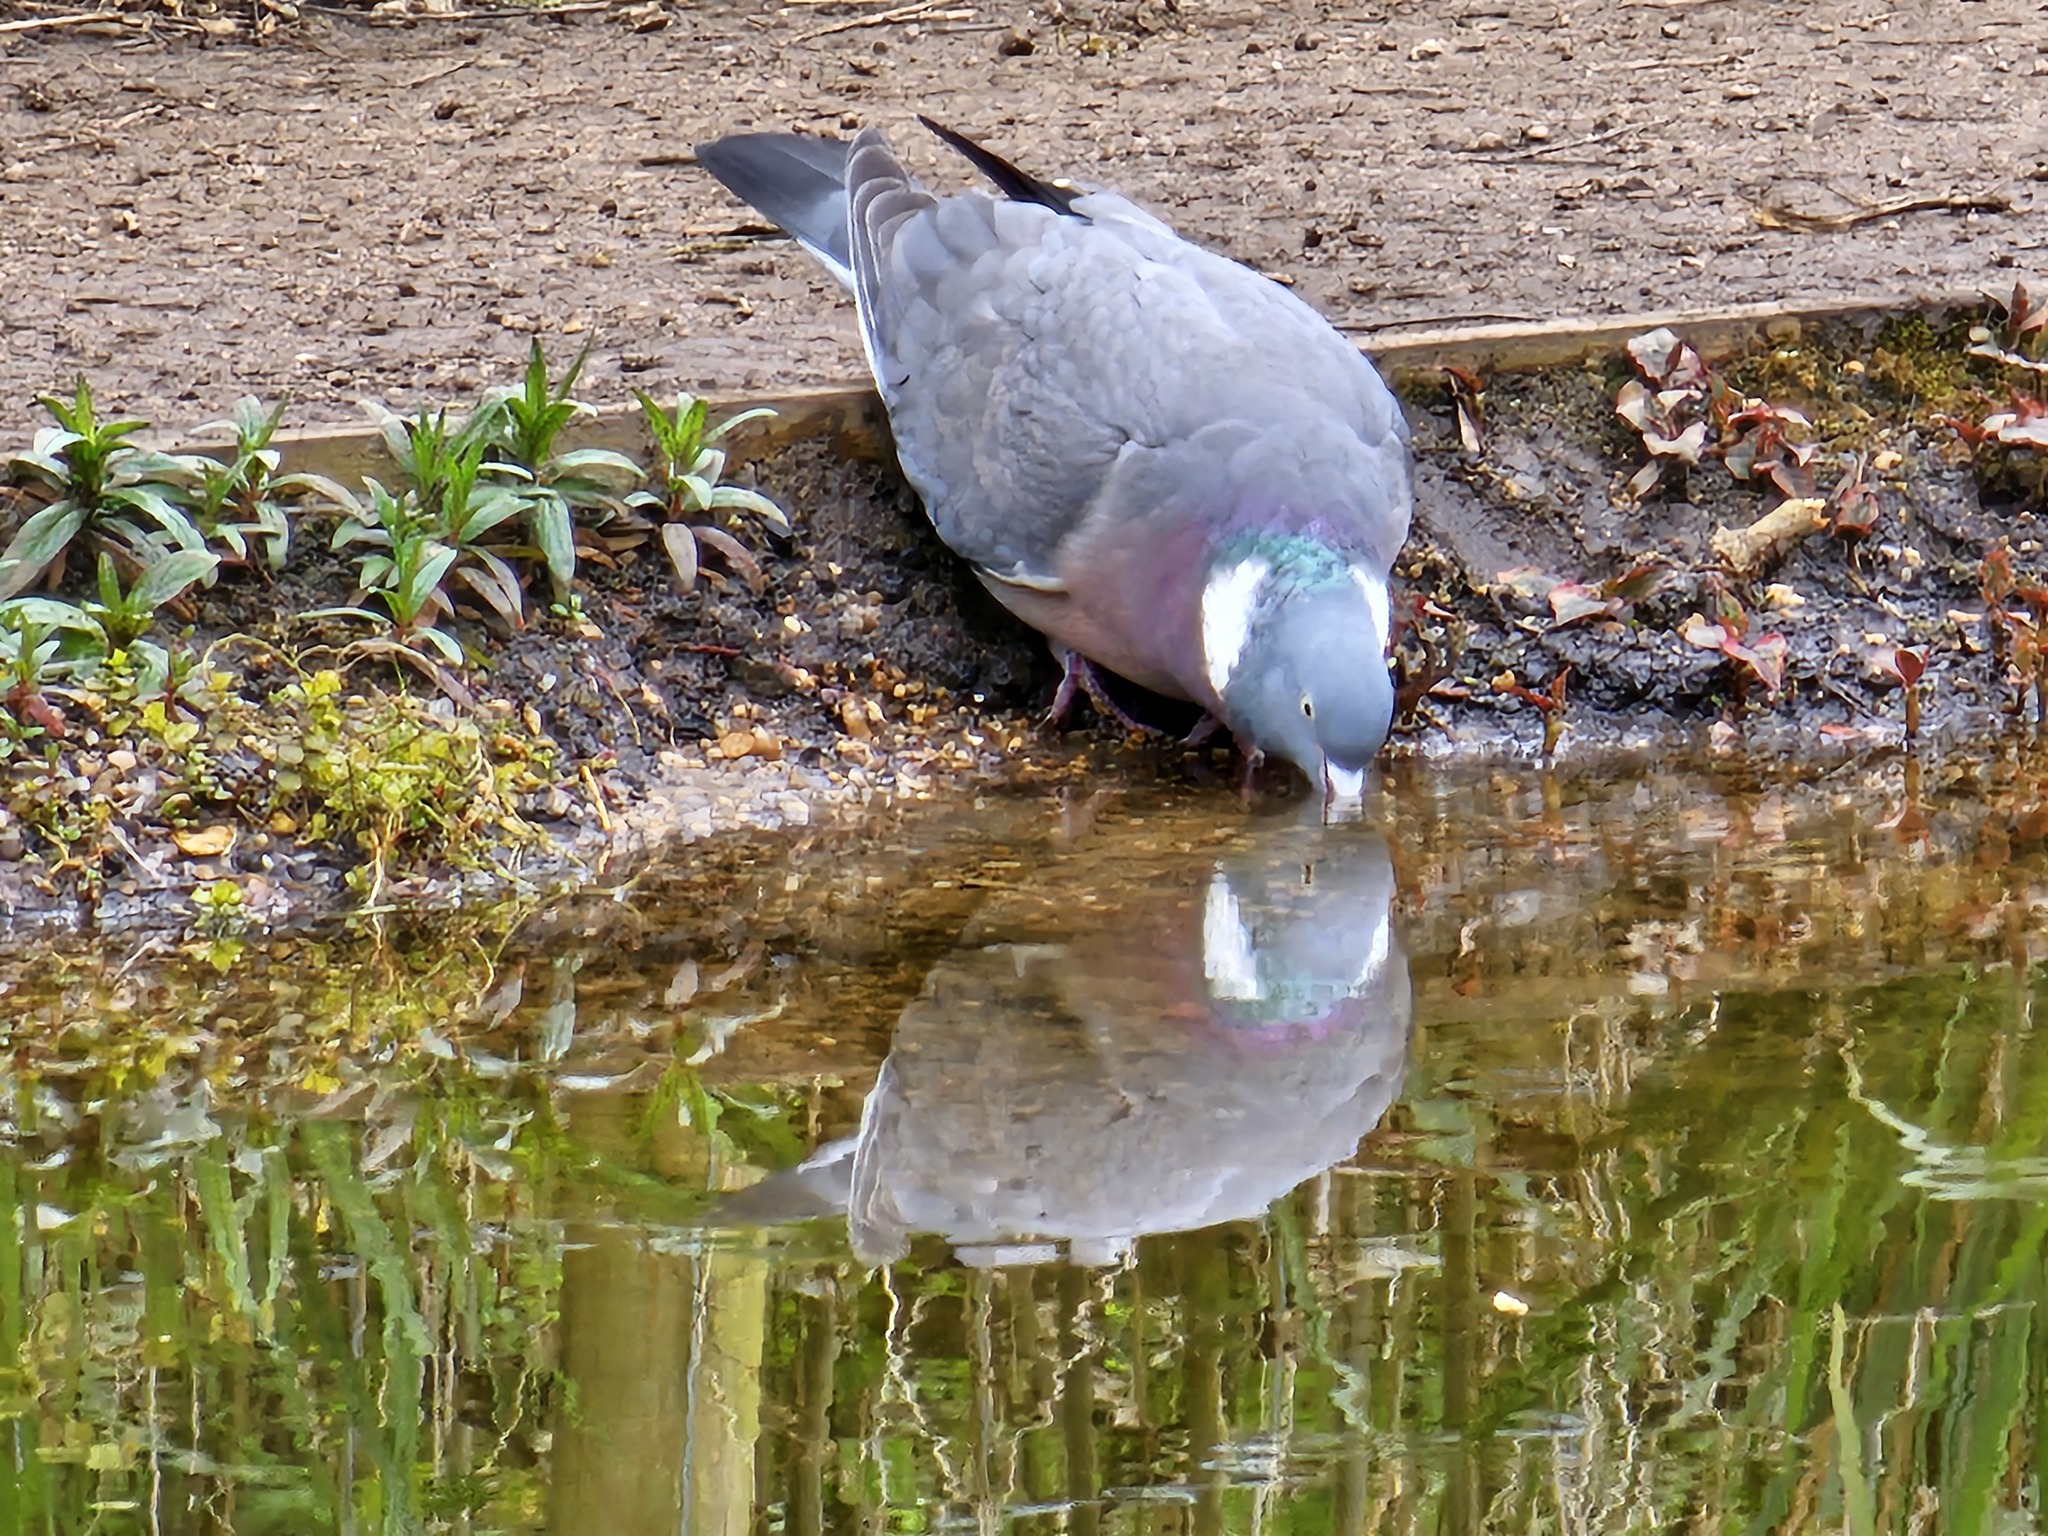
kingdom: Animalia
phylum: Chordata
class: Aves
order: Columbiformes
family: Columbidae
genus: Columba
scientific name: Columba palumbus
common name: Common wood pigeon
